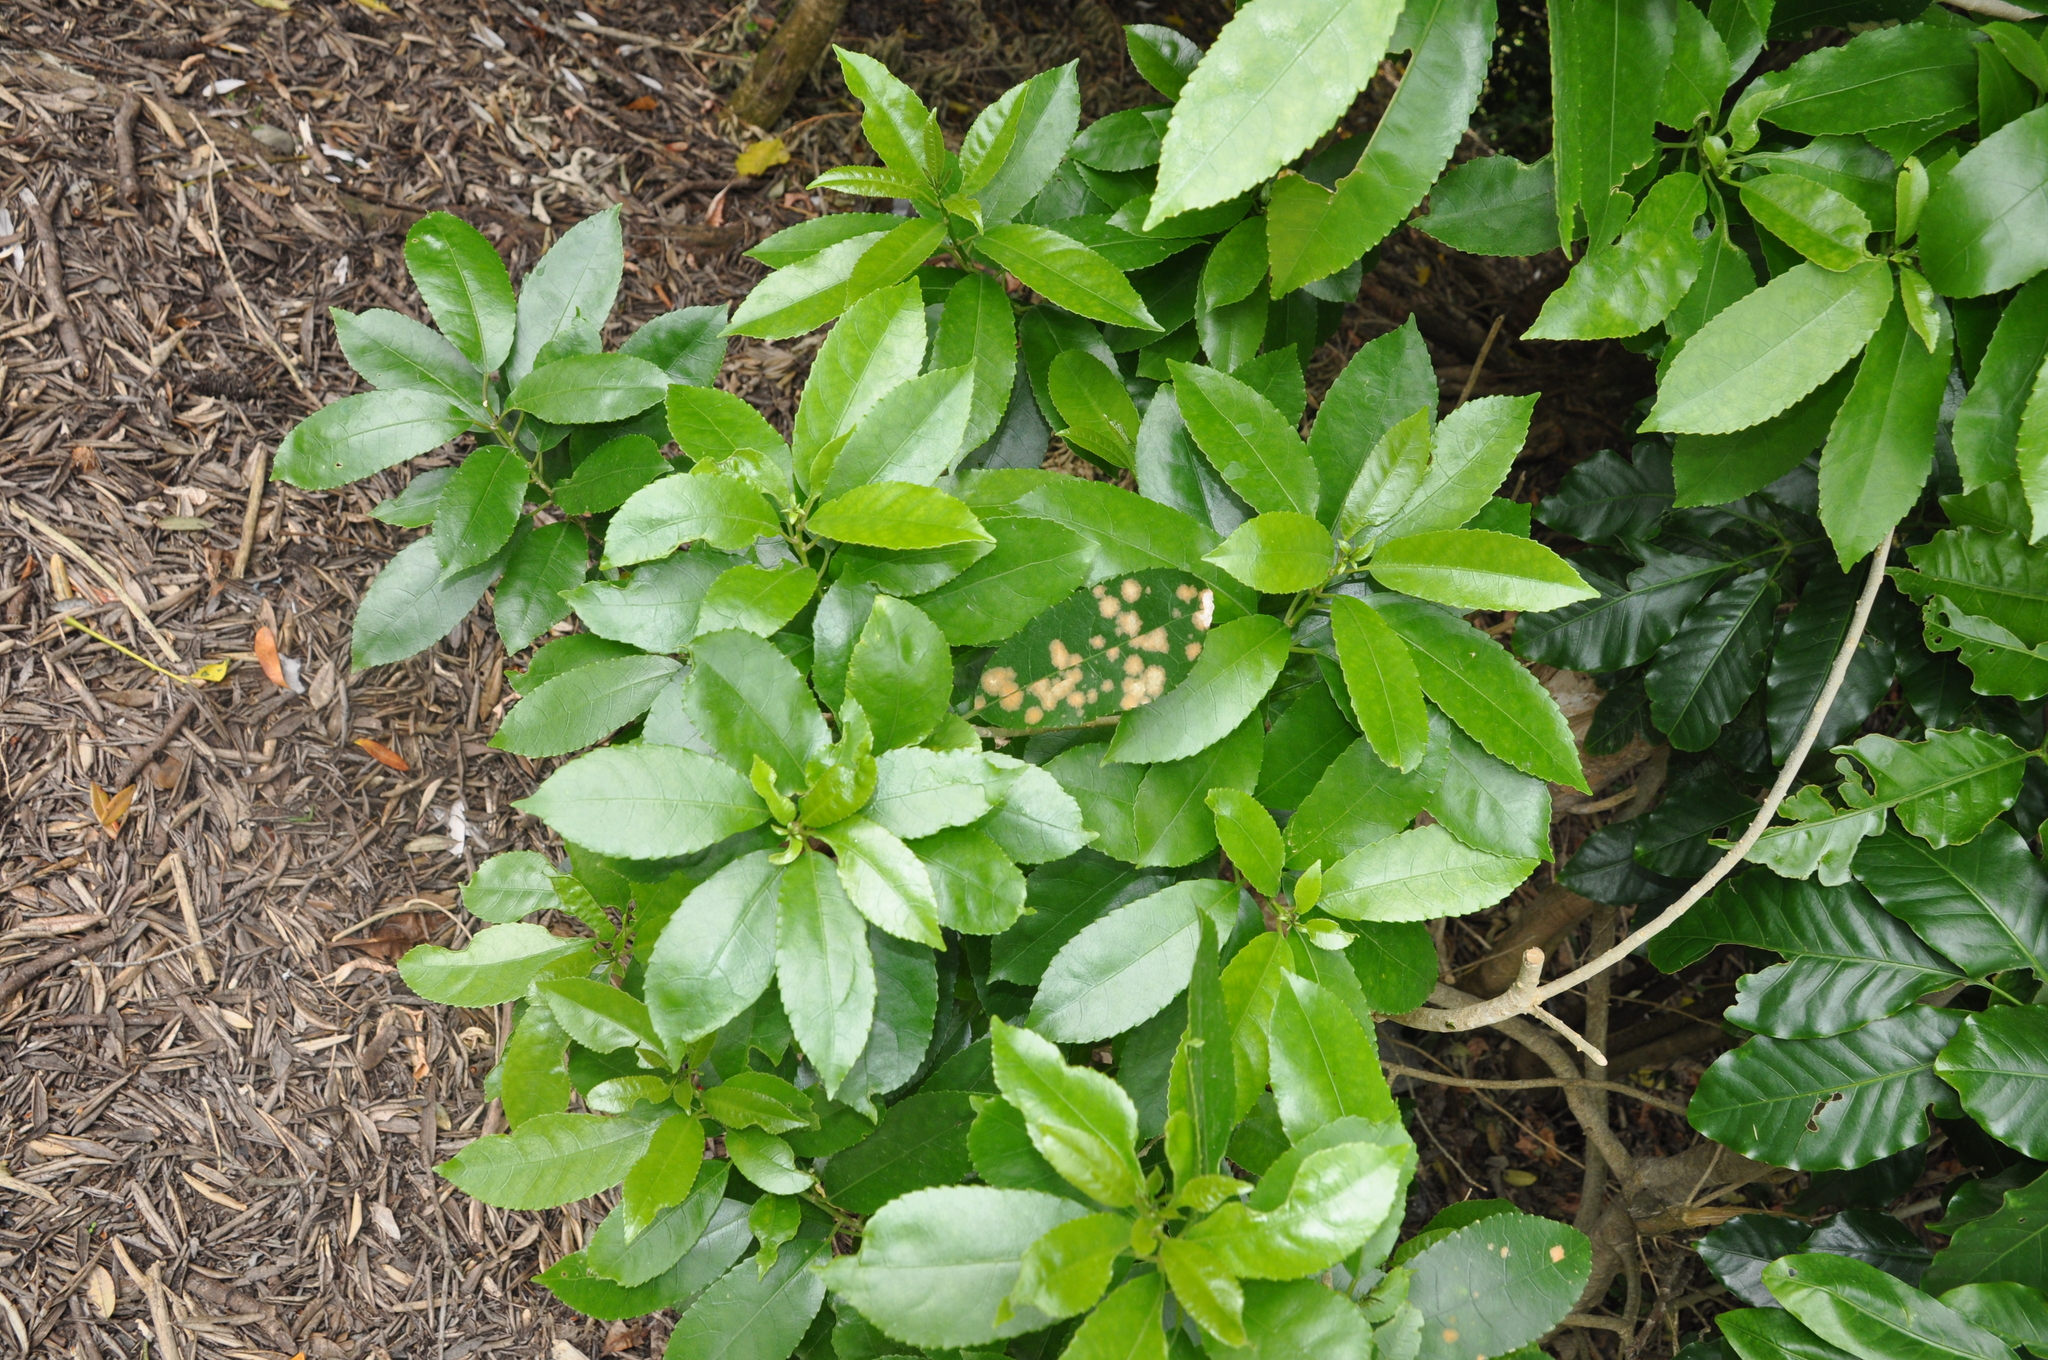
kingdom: Plantae
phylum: Tracheophyta
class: Magnoliopsida
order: Malpighiales
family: Violaceae
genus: Melicytus
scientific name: Melicytus ramiflorus
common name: Mahoe
